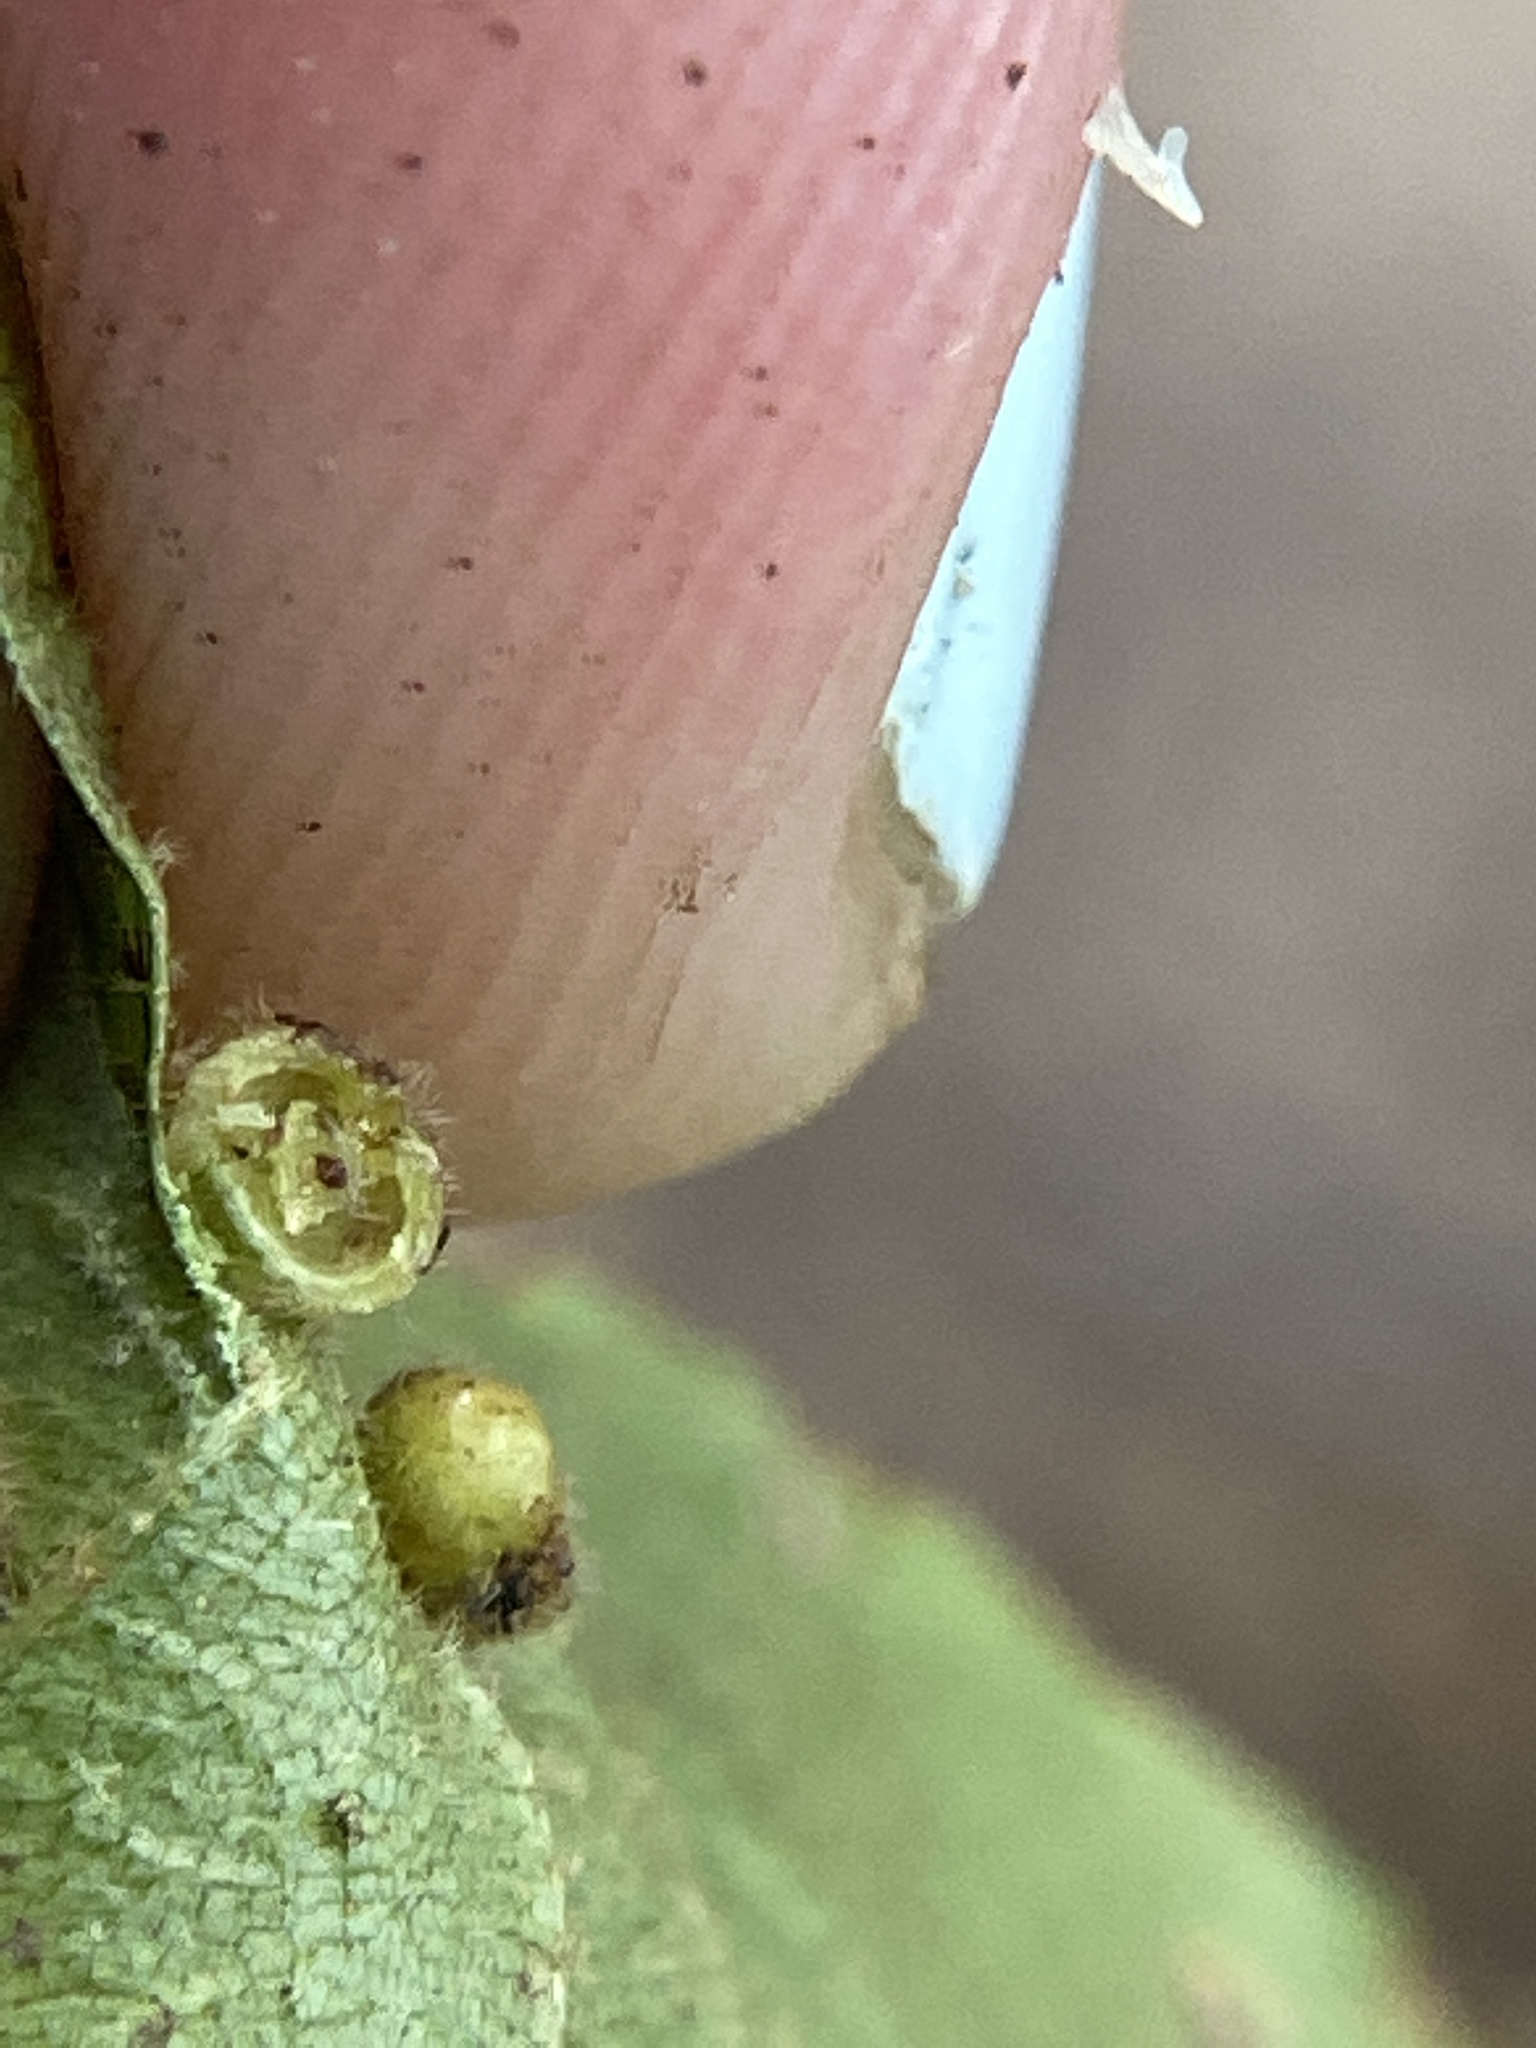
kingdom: Animalia
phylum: Arthropoda
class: Insecta
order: Diptera
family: Cecidomyiidae
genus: Caryomyia
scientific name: Caryomyia thompsoni
